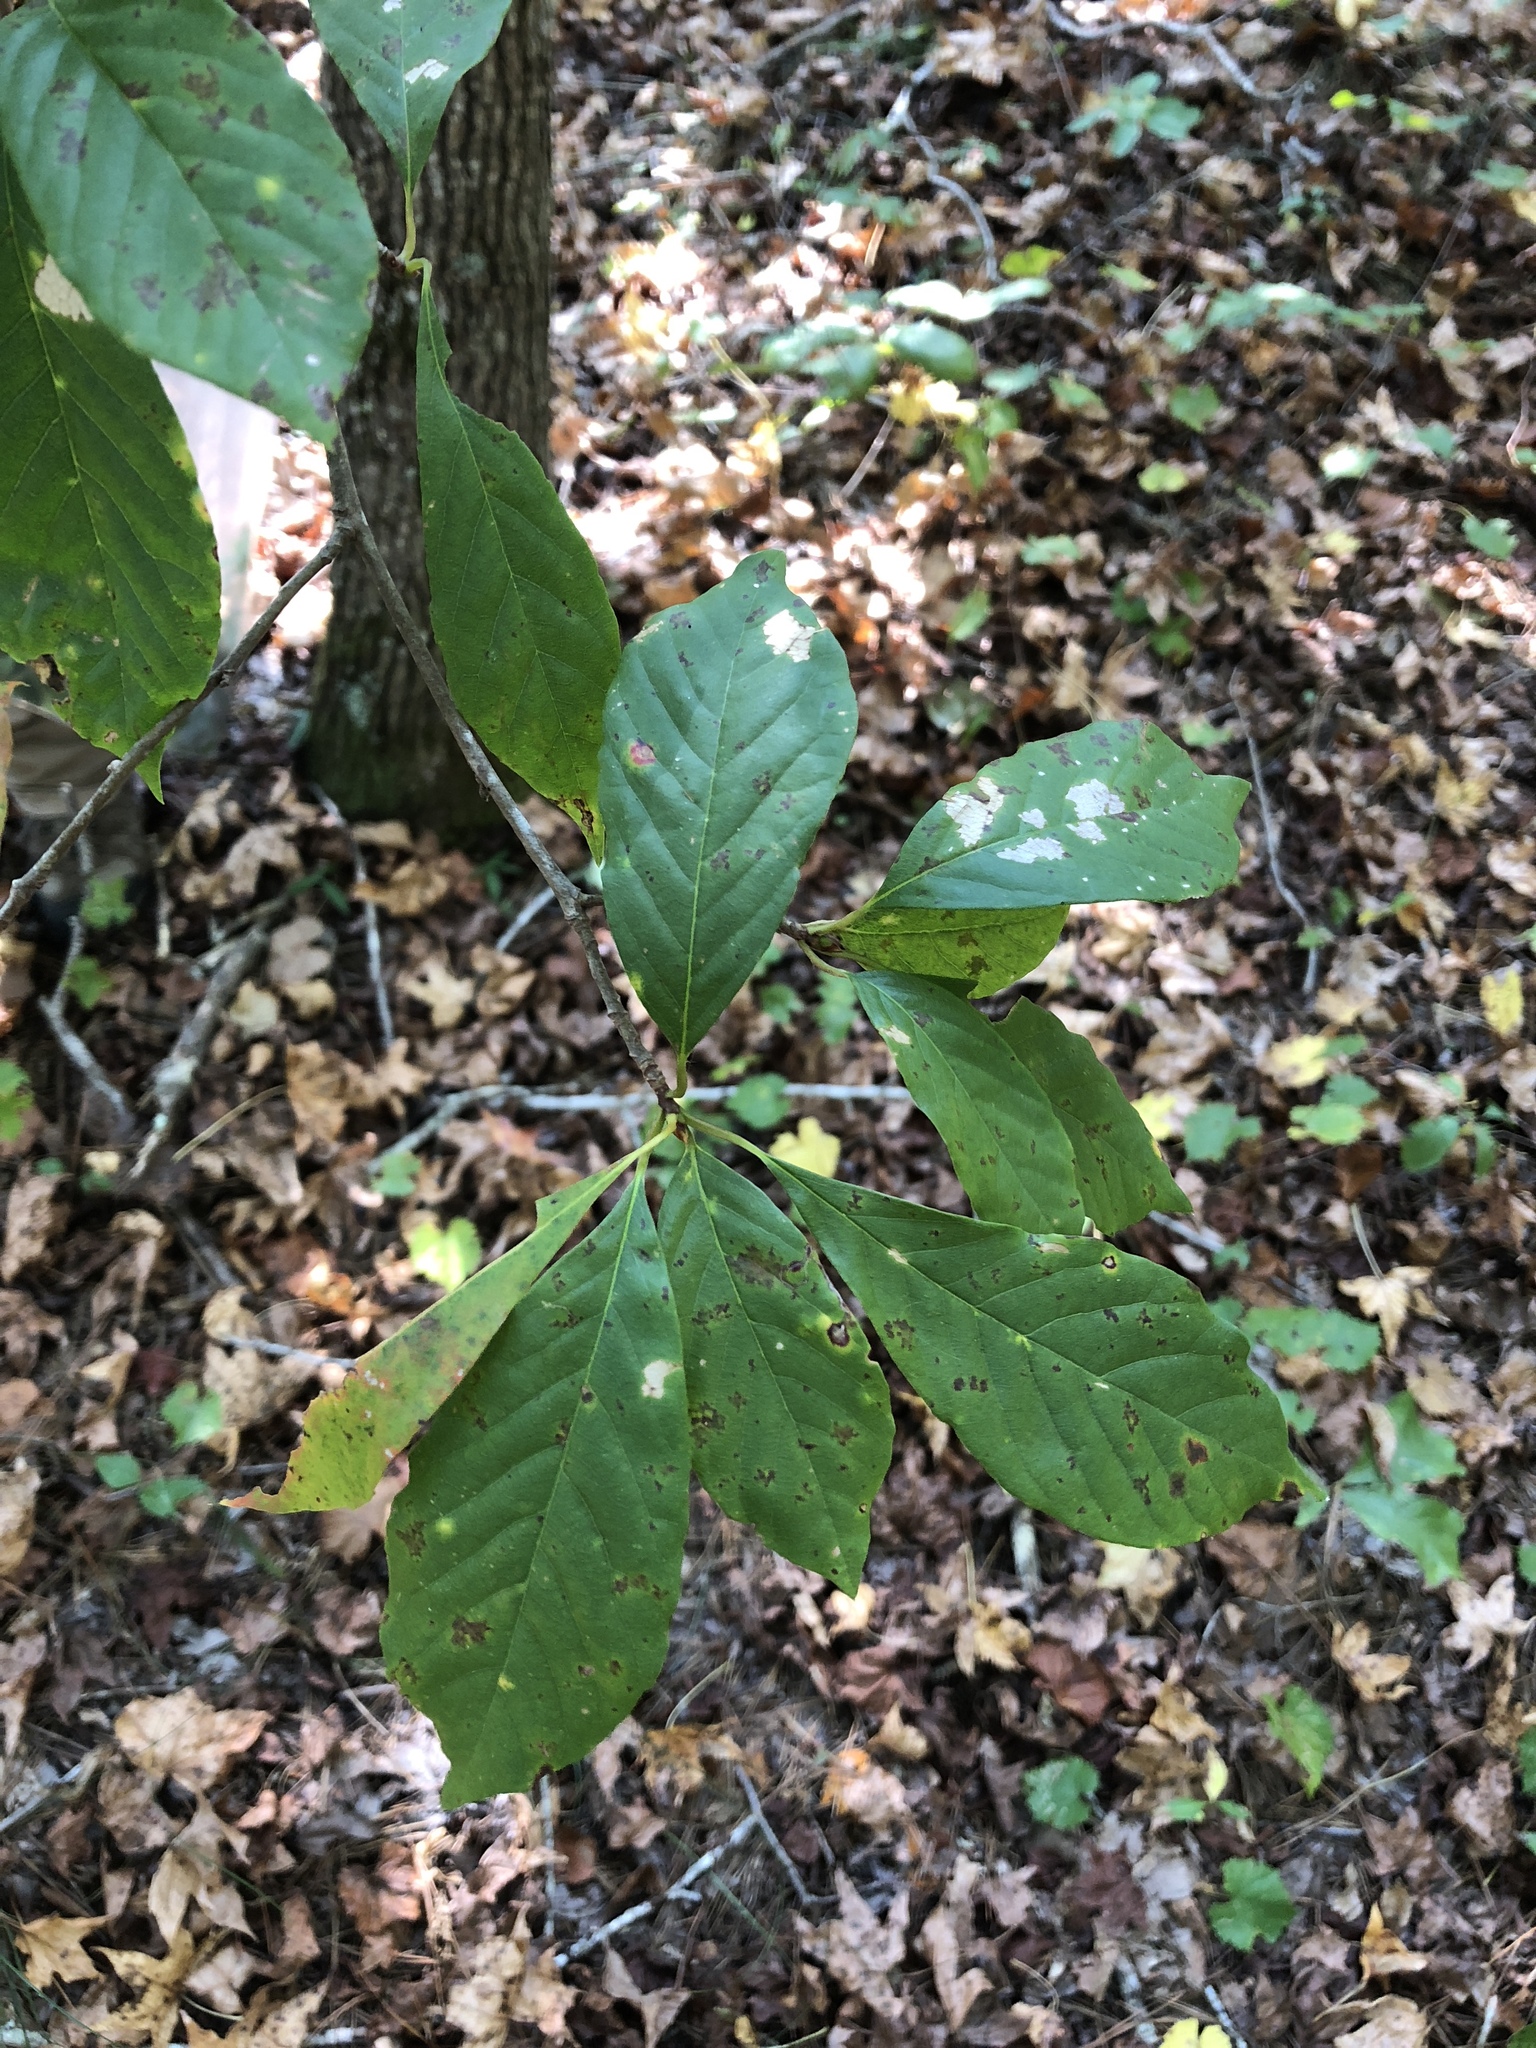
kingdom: Plantae
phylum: Tracheophyta
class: Magnoliopsida
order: Cornales
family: Nyssaceae
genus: Nyssa
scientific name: Nyssa sylvatica
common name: Black tupelo
